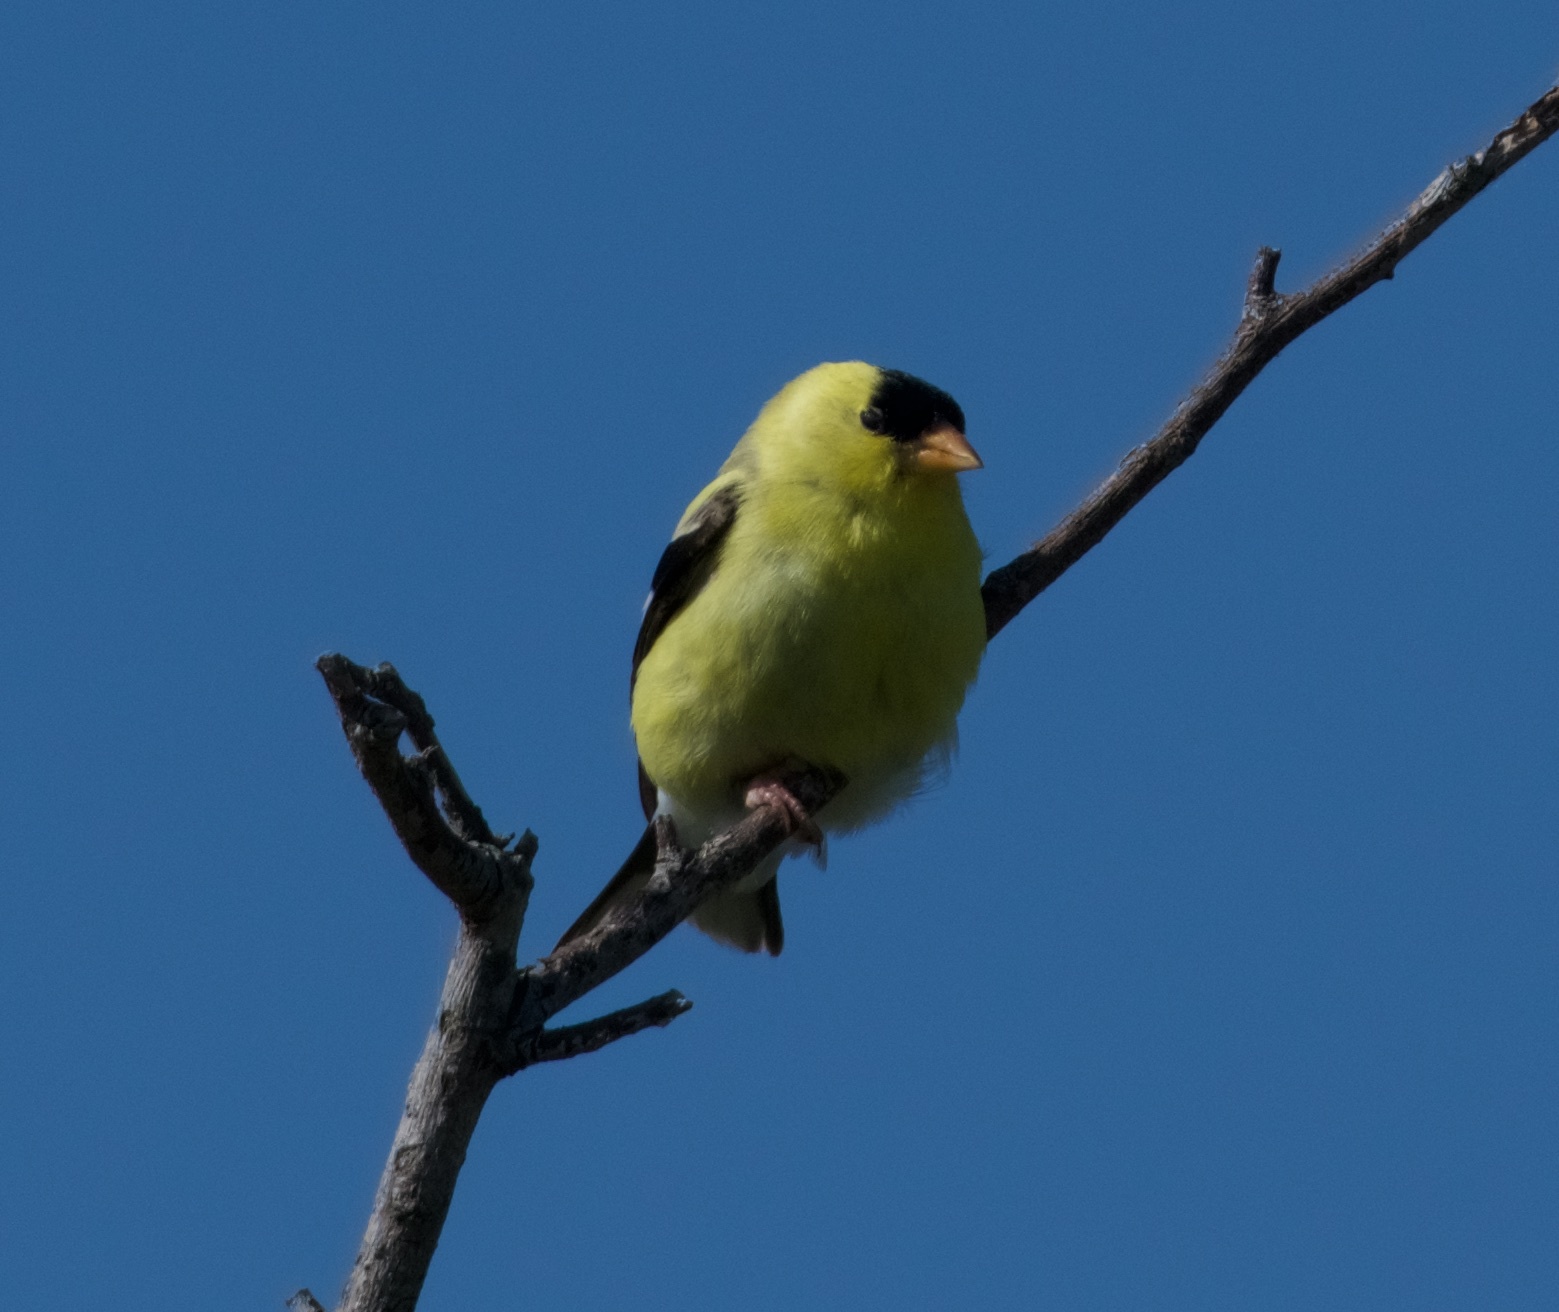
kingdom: Animalia
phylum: Chordata
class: Aves
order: Passeriformes
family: Fringillidae
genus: Spinus
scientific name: Spinus tristis
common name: American goldfinch
